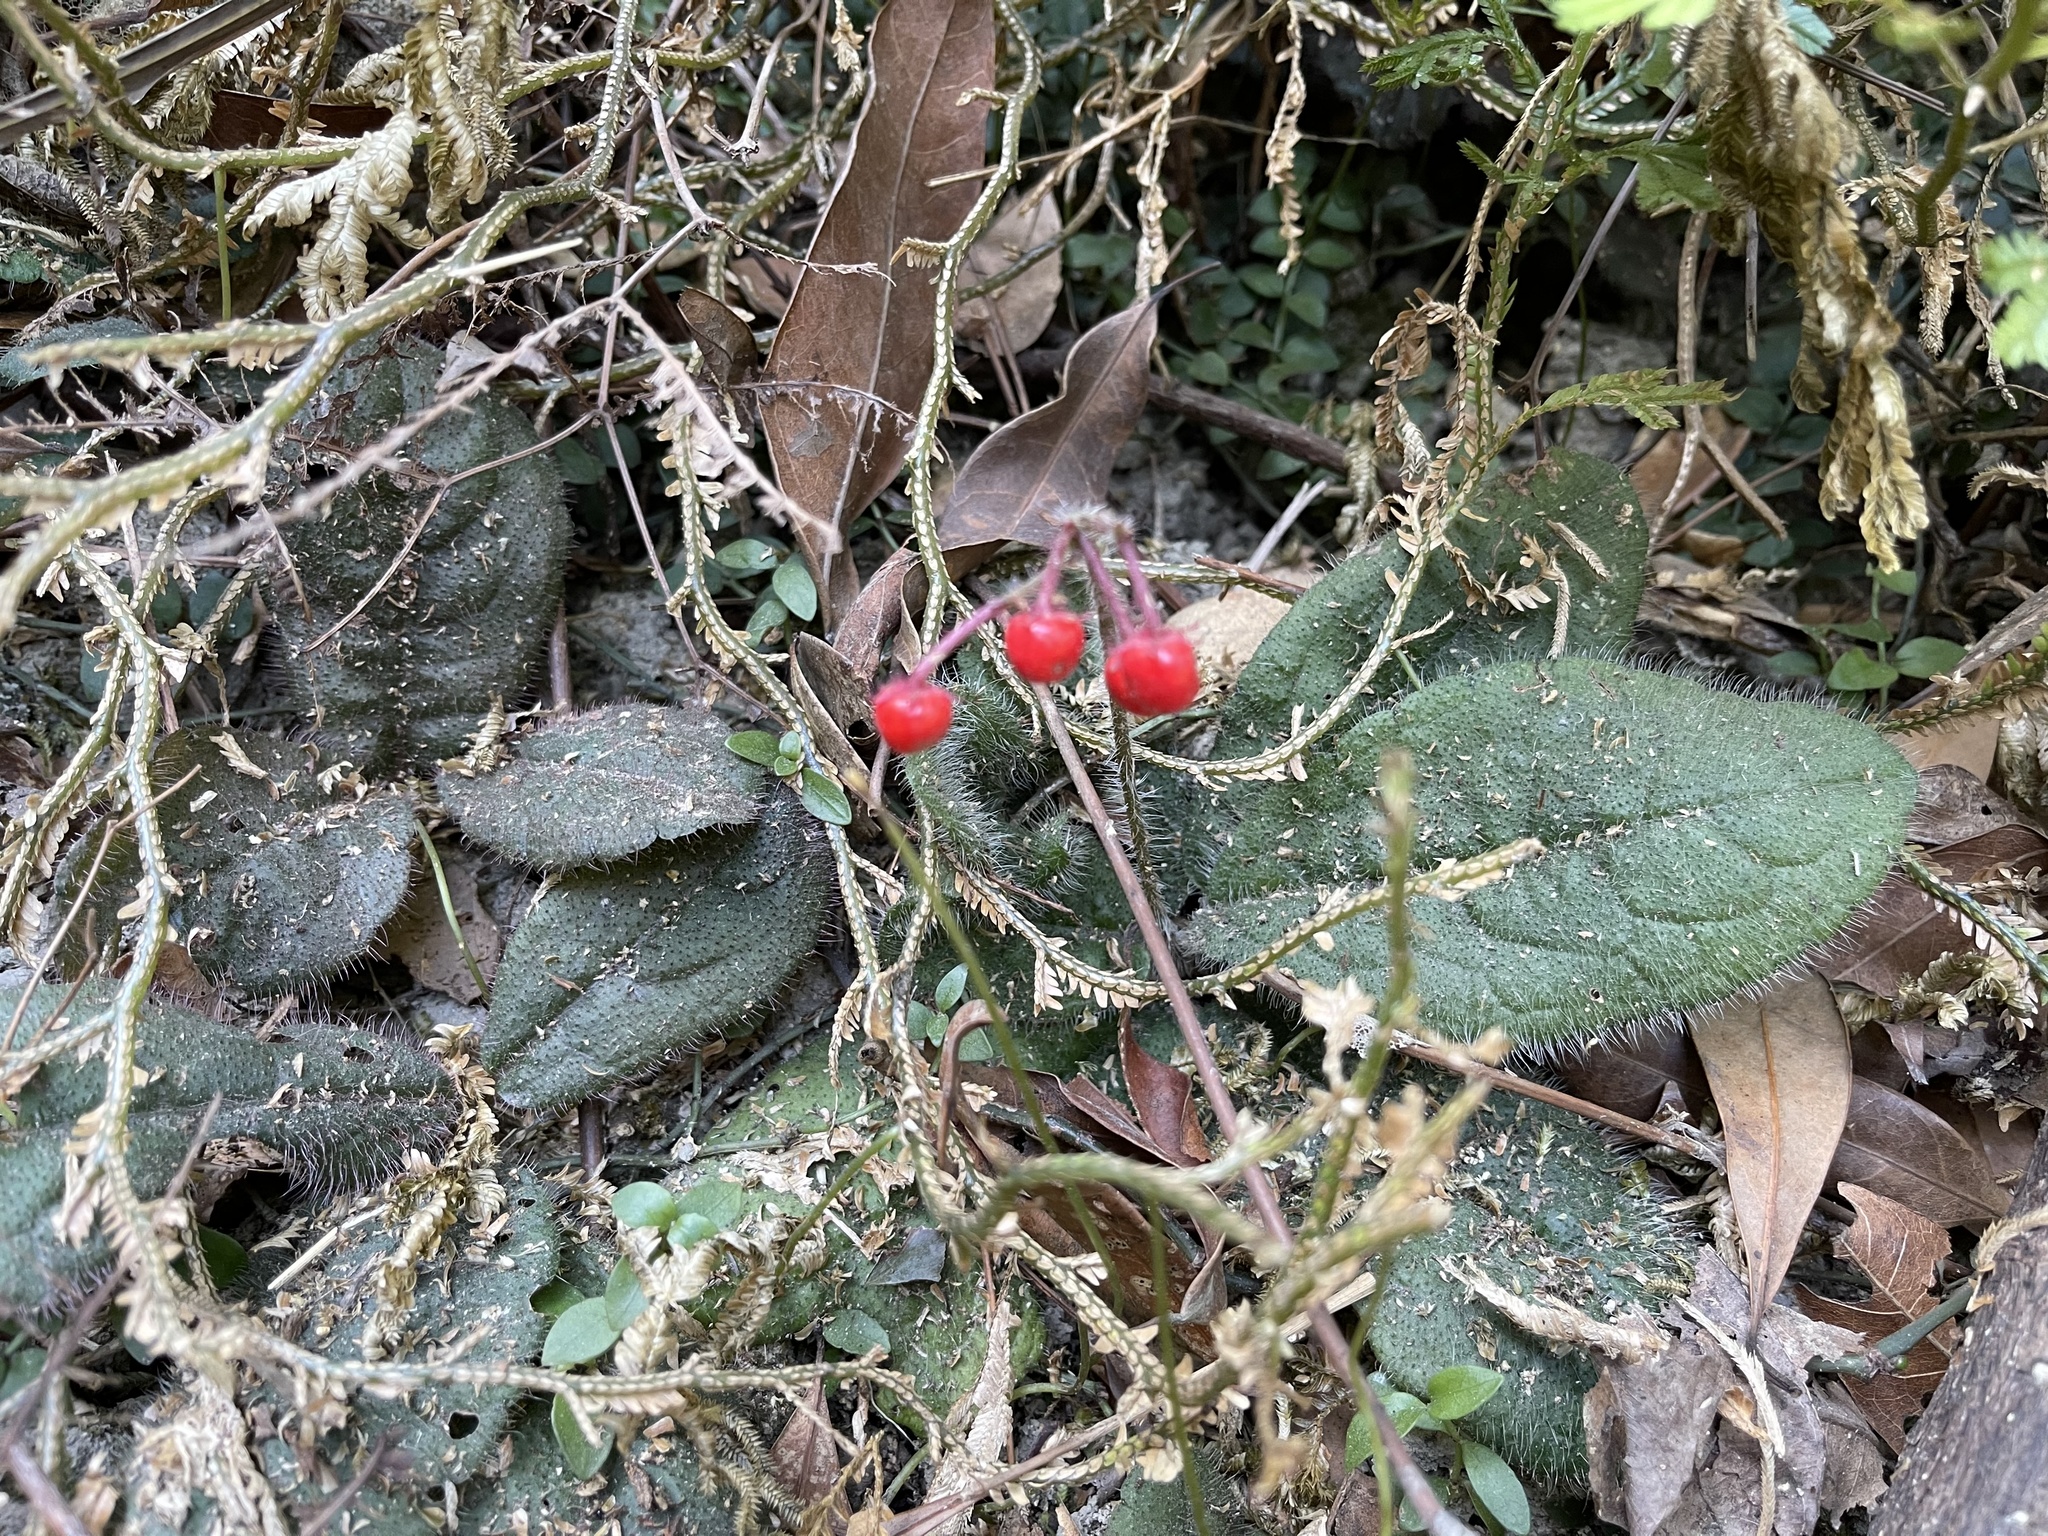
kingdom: Plantae
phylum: Tracheophyta
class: Magnoliopsida
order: Ericales
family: Primulaceae
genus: Ardisia
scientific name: Ardisia primulifolia
